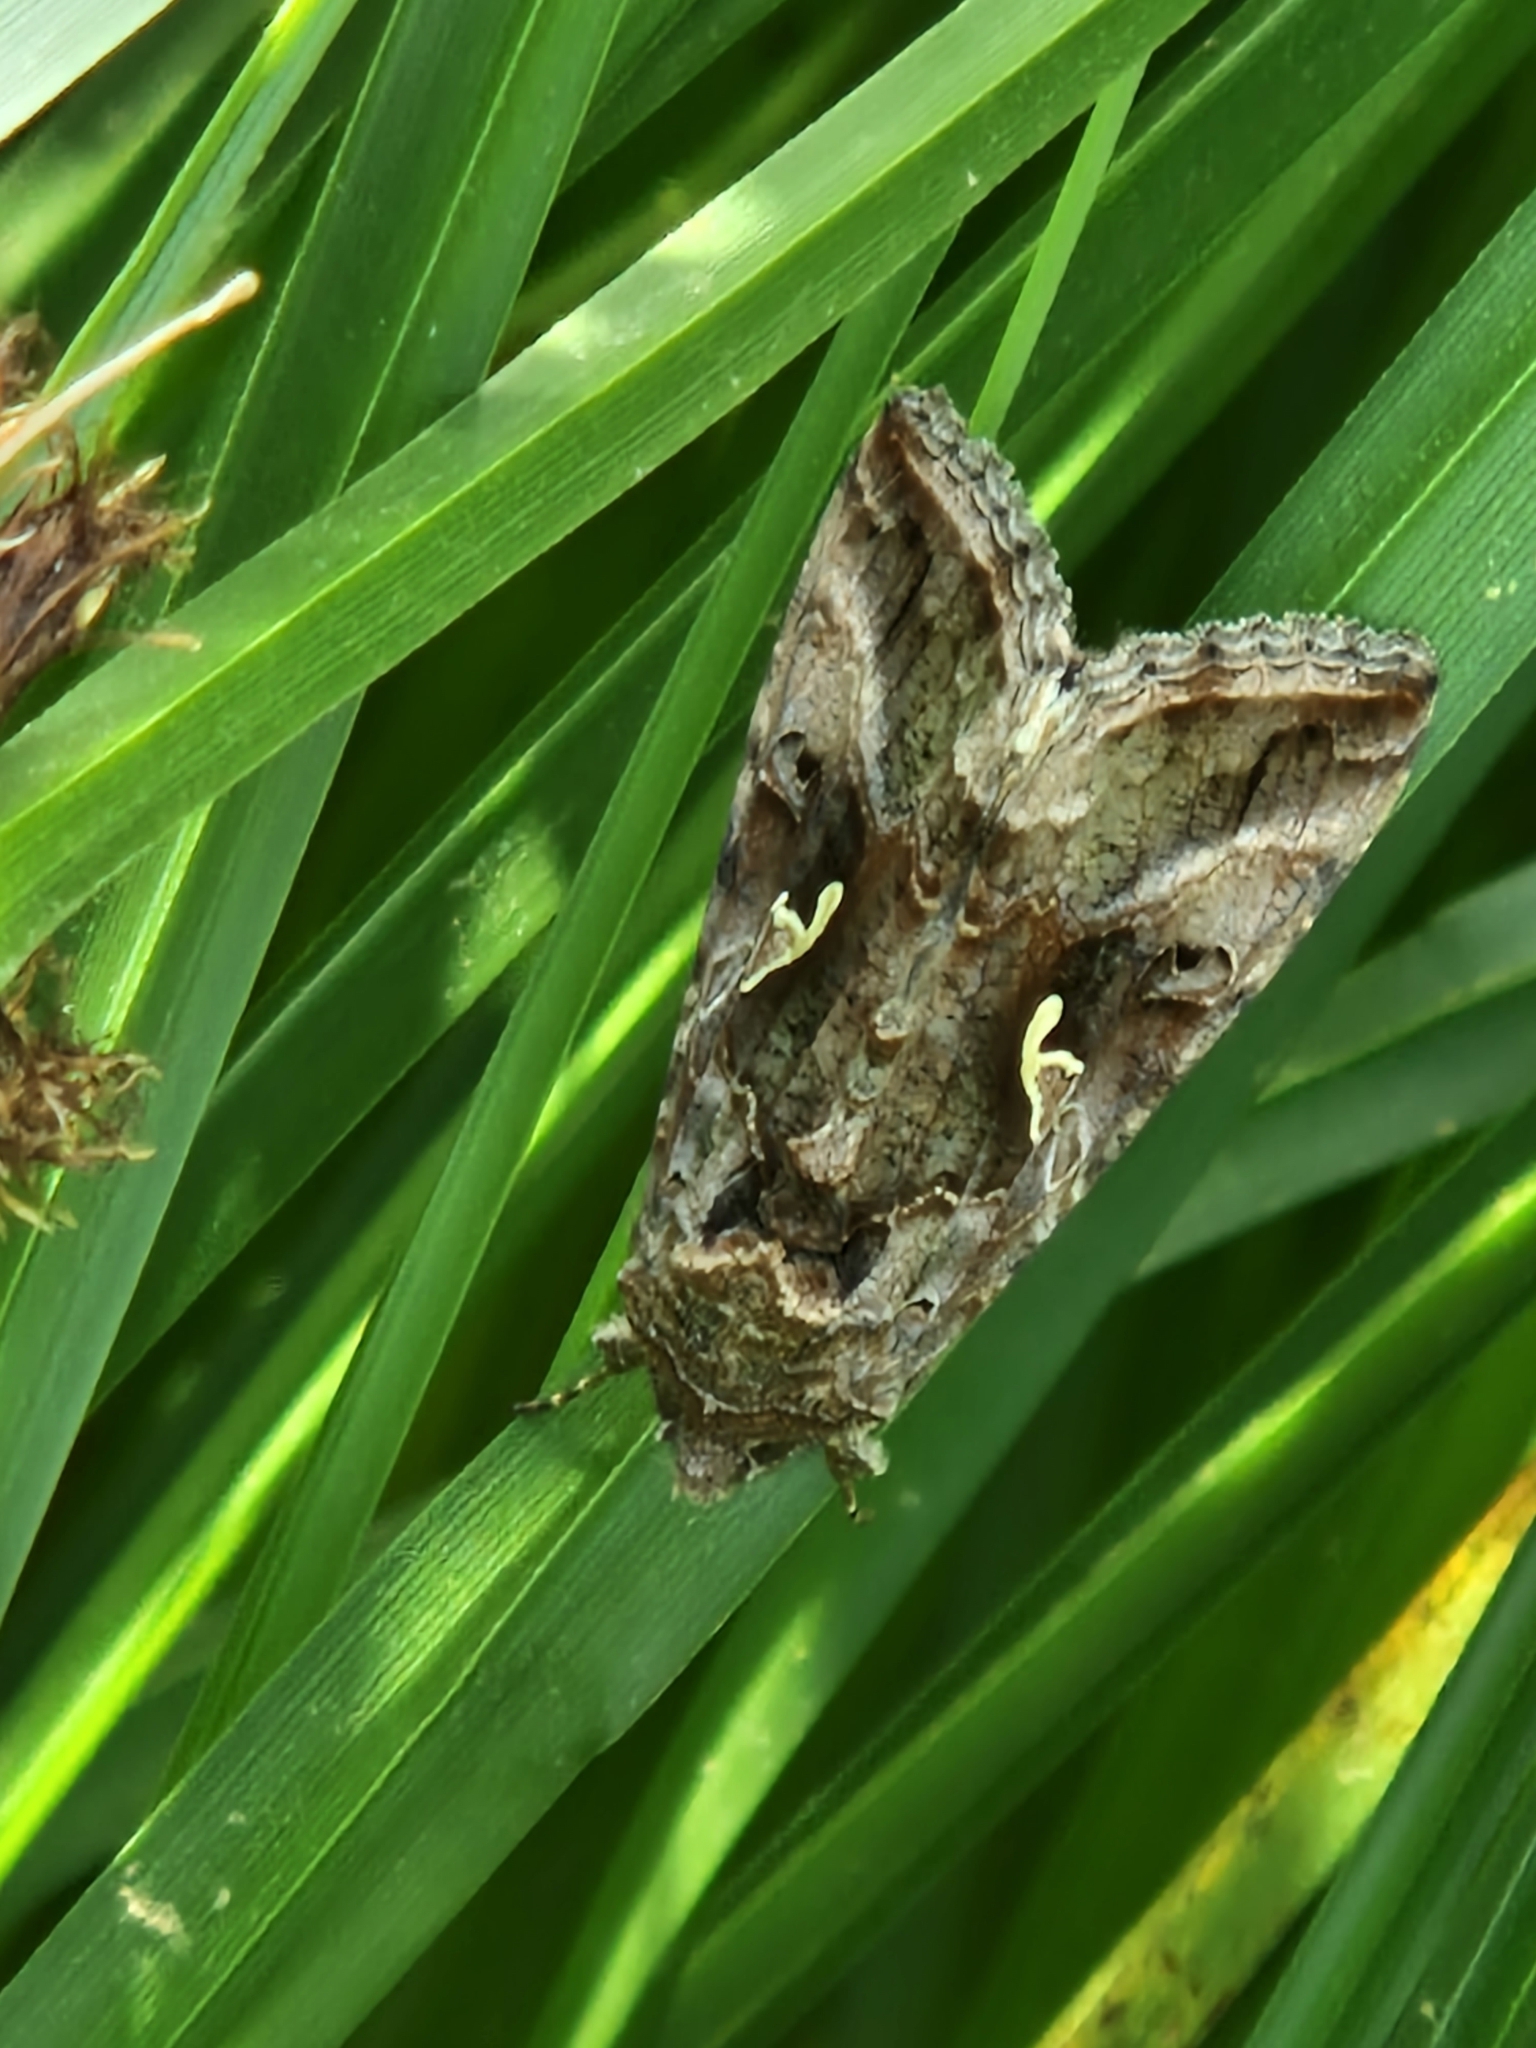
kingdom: Animalia
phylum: Arthropoda
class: Insecta
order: Lepidoptera
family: Noctuidae
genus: Autographa
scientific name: Autographa gamma
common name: Silver y
